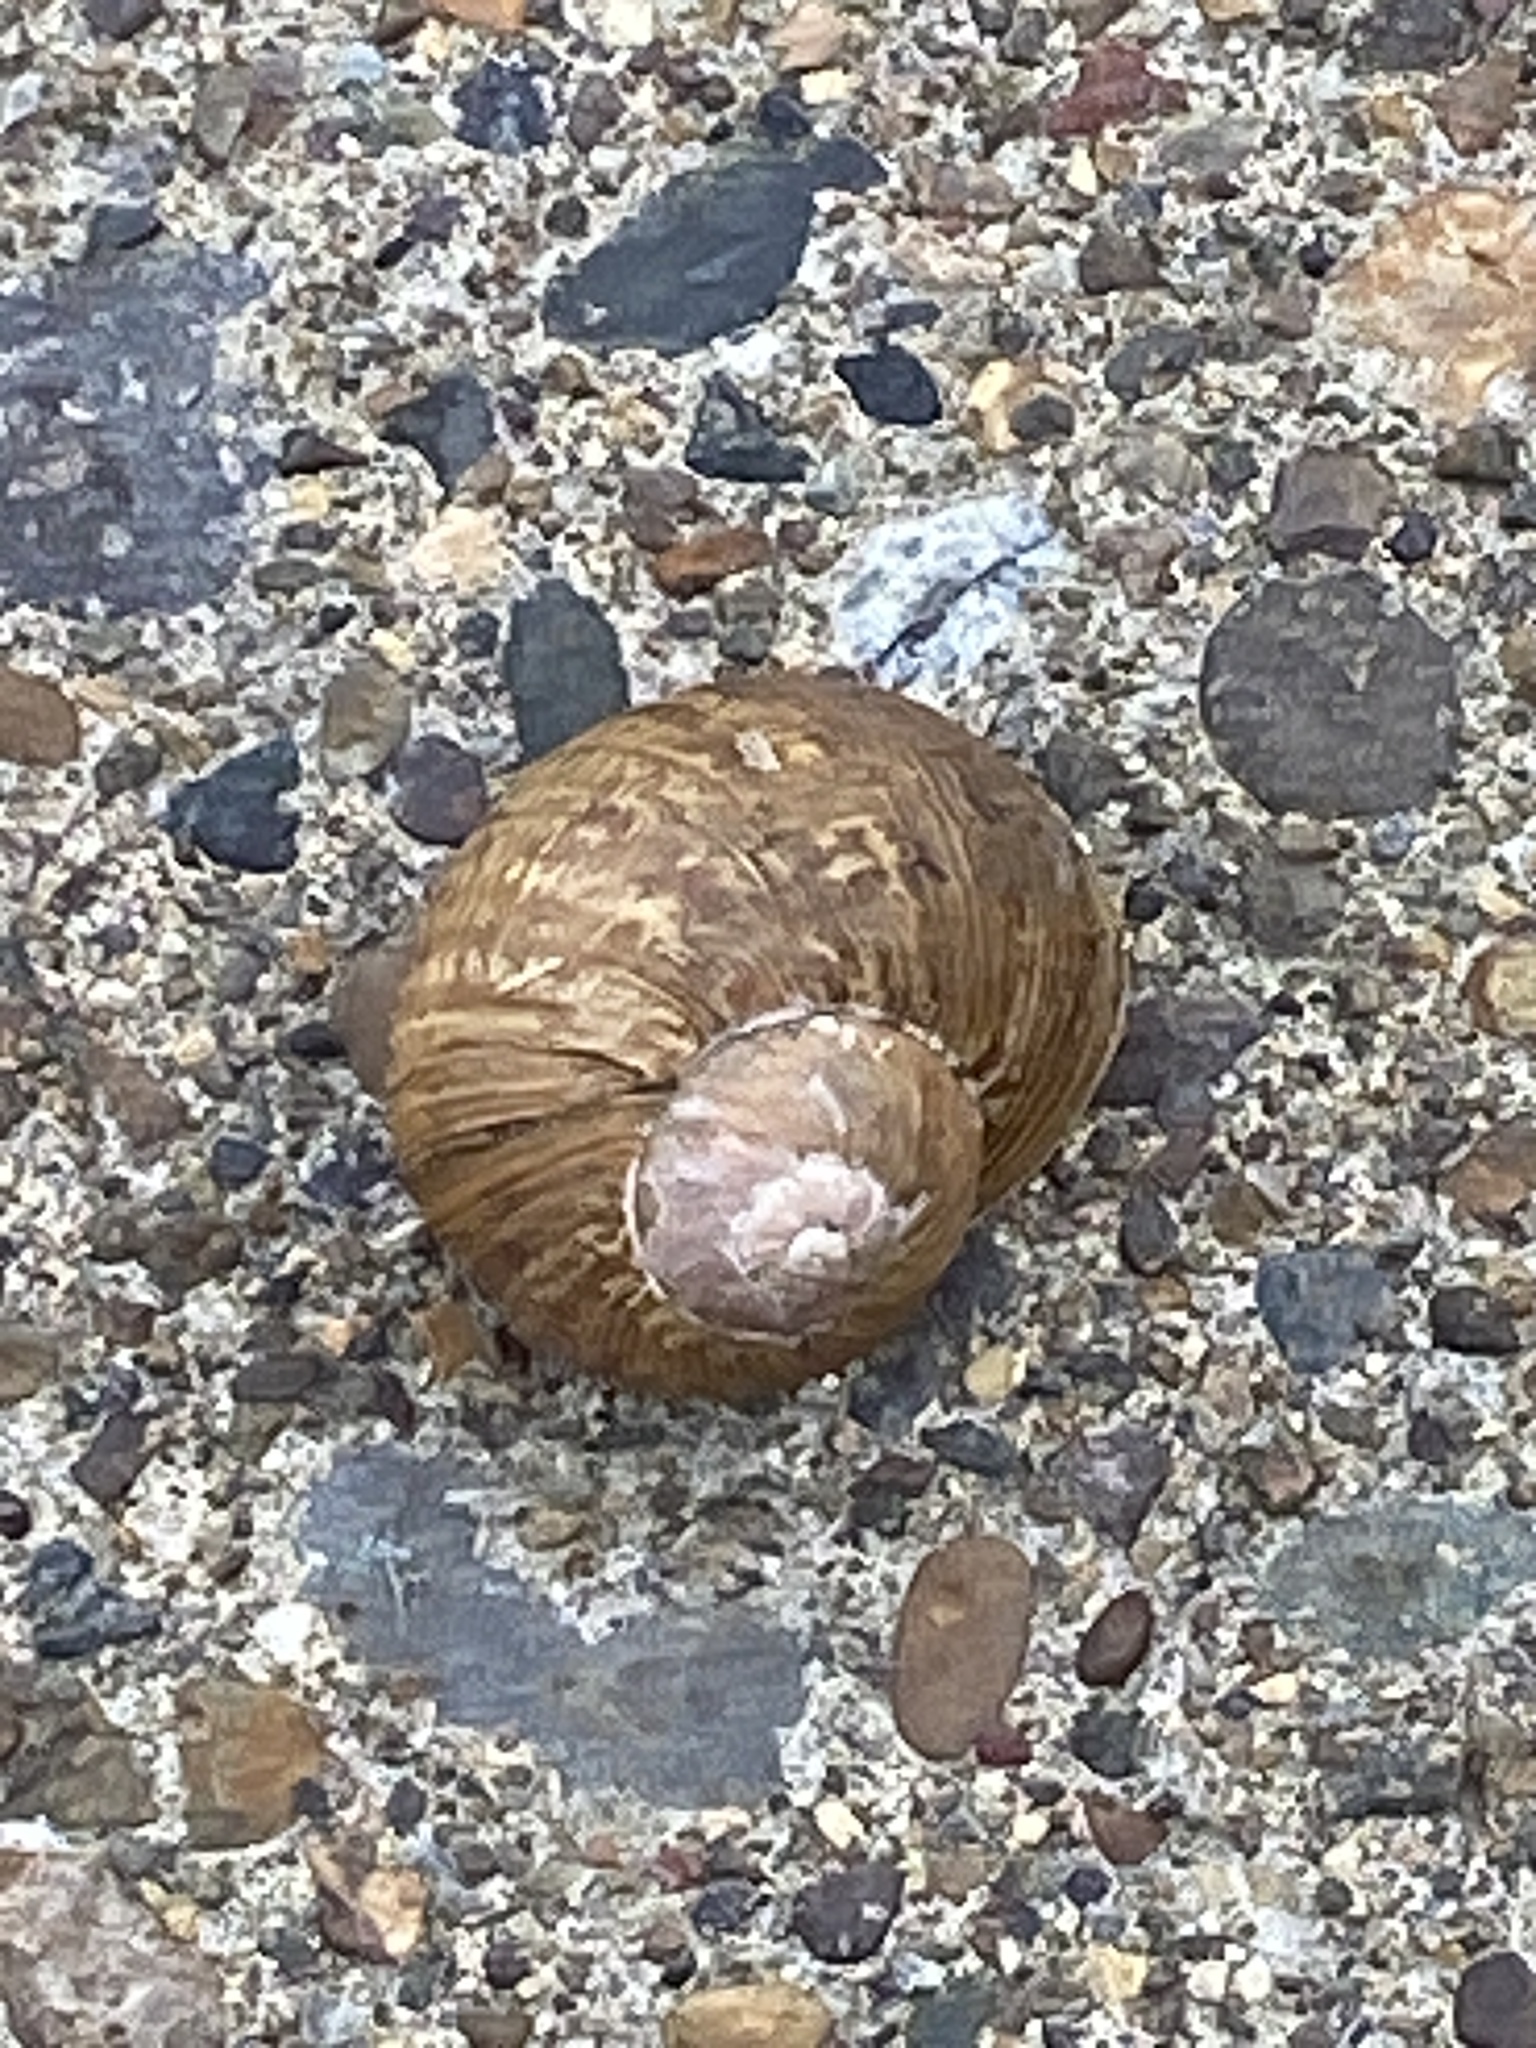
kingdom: Animalia
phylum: Mollusca
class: Gastropoda
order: Stylommatophora
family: Helicidae
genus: Cornu
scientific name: Cornu aspersum
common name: Brown garden snail
